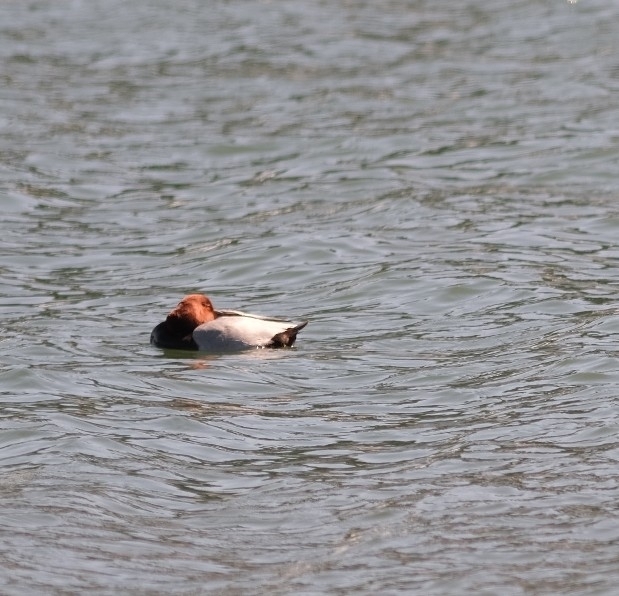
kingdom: Animalia
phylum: Chordata
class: Aves
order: Anseriformes
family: Anatidae
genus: Aythya
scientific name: Aythya ferina
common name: Common pochard
